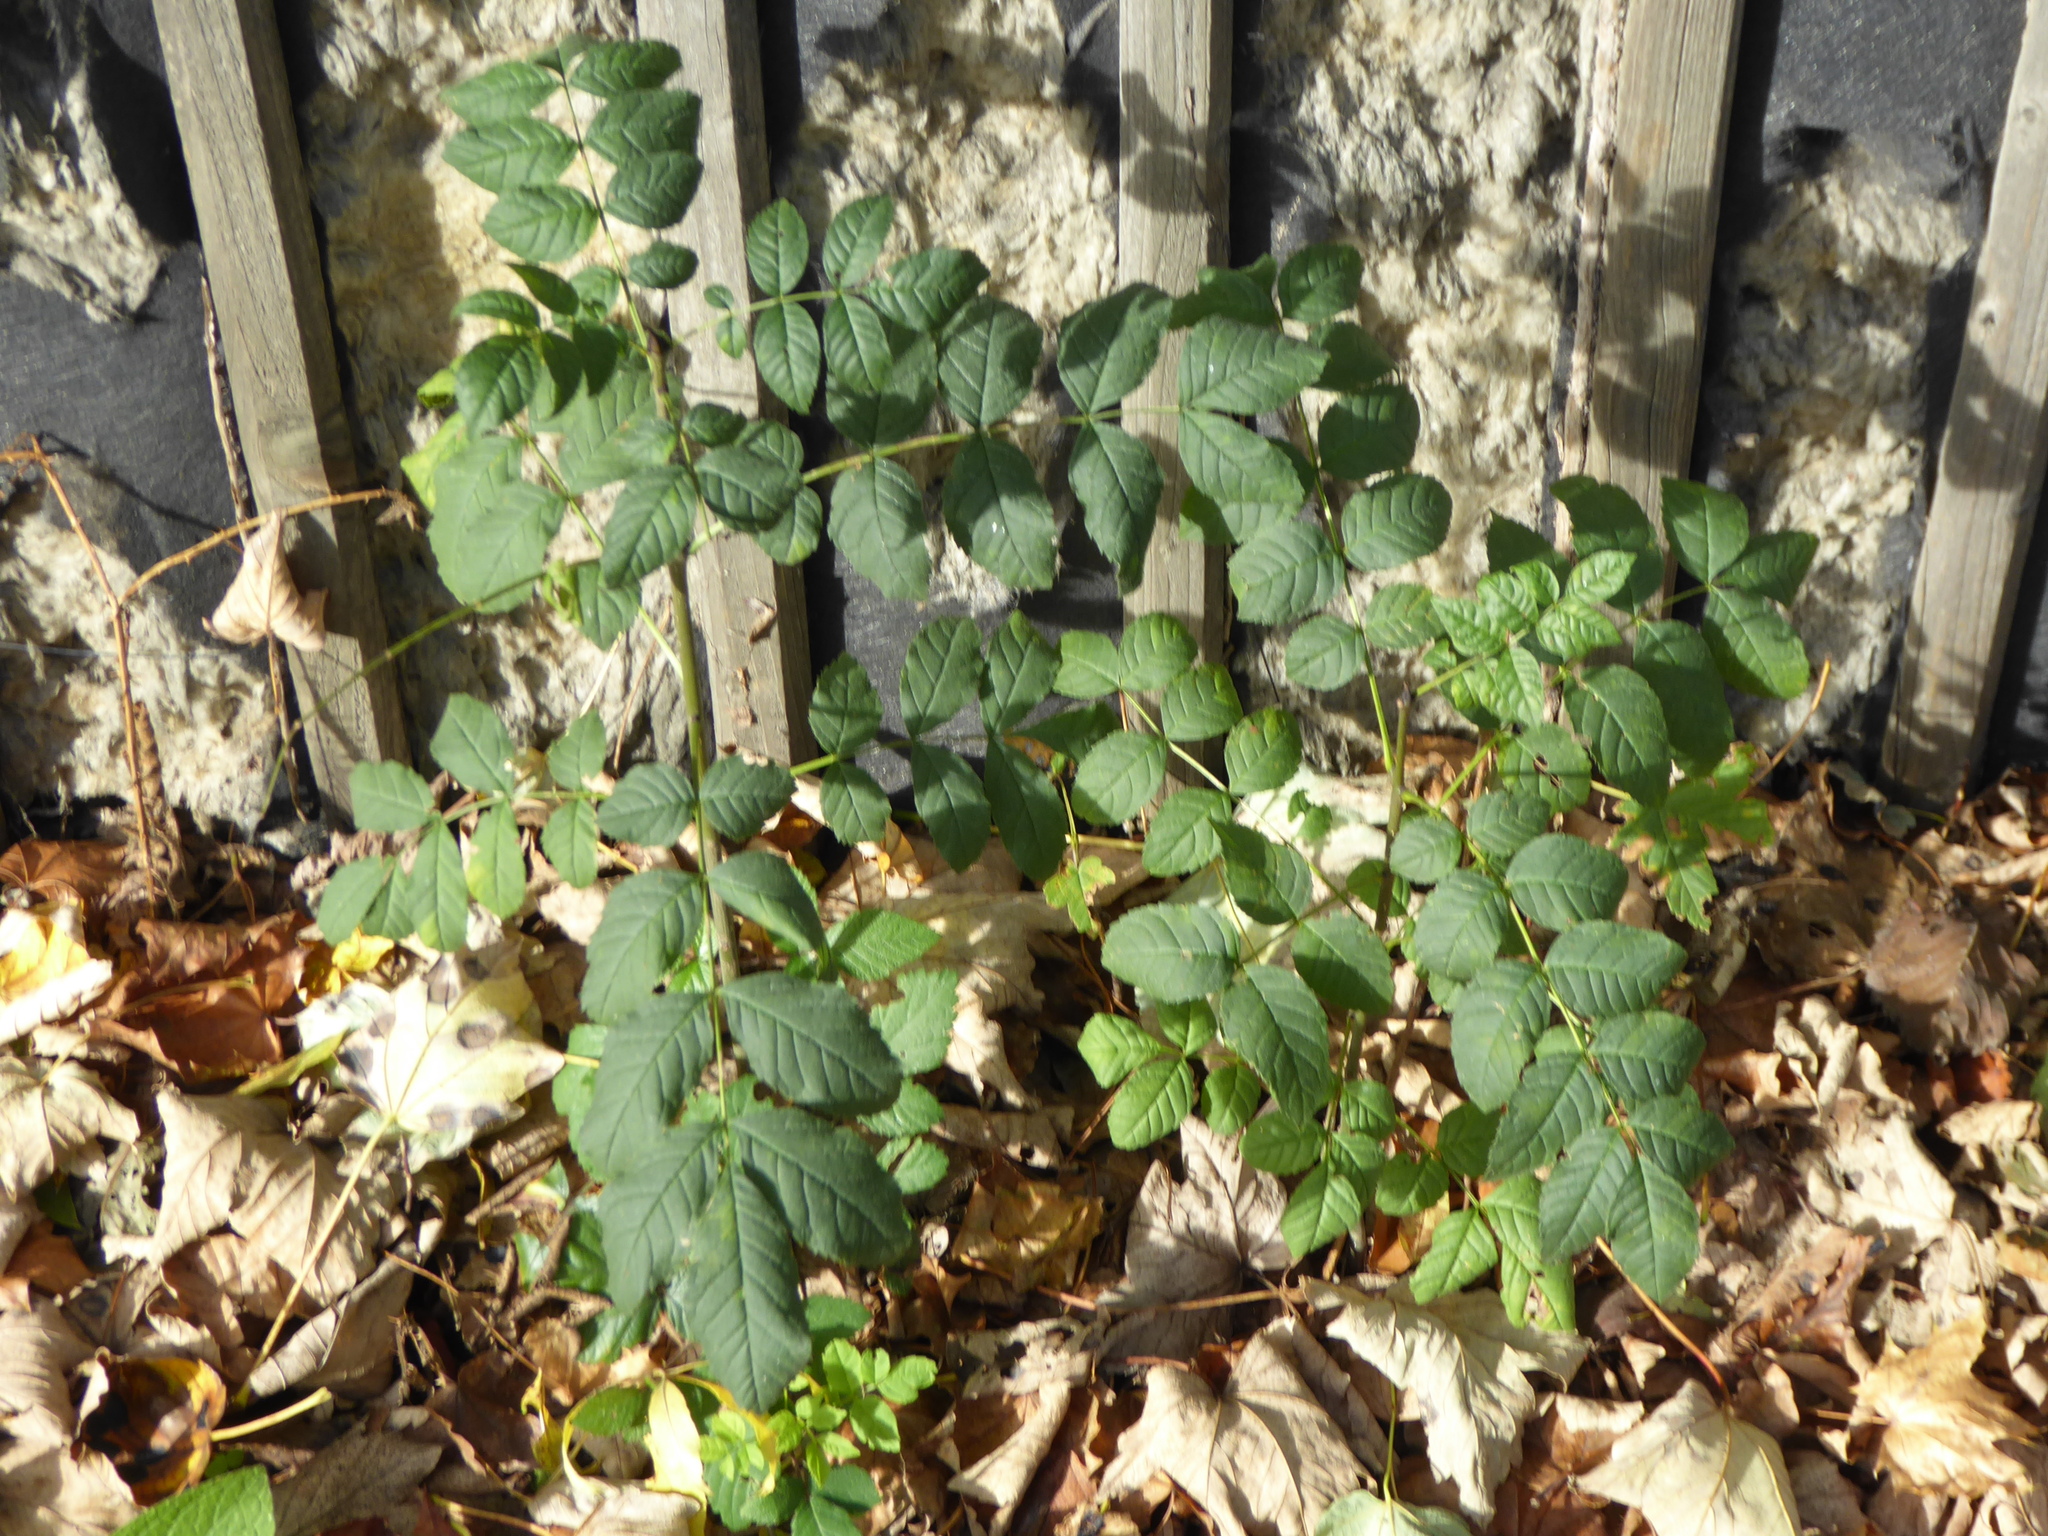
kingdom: Plantae
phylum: Tracheophyta
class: Magnoliopsida
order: Lamiales
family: Oleaceae
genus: Fraxinus
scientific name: Fraxinus excelsior
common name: European ash
